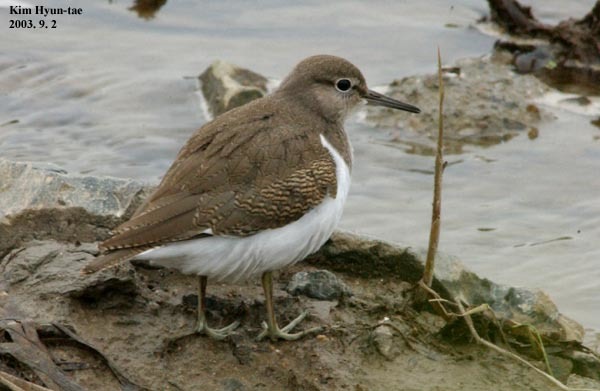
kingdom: Animalia
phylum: Chordata
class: Aves
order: Charadriiformes
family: Scolopacidae
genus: Actitis
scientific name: Actitis hypoleucos
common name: Common sandpiper
